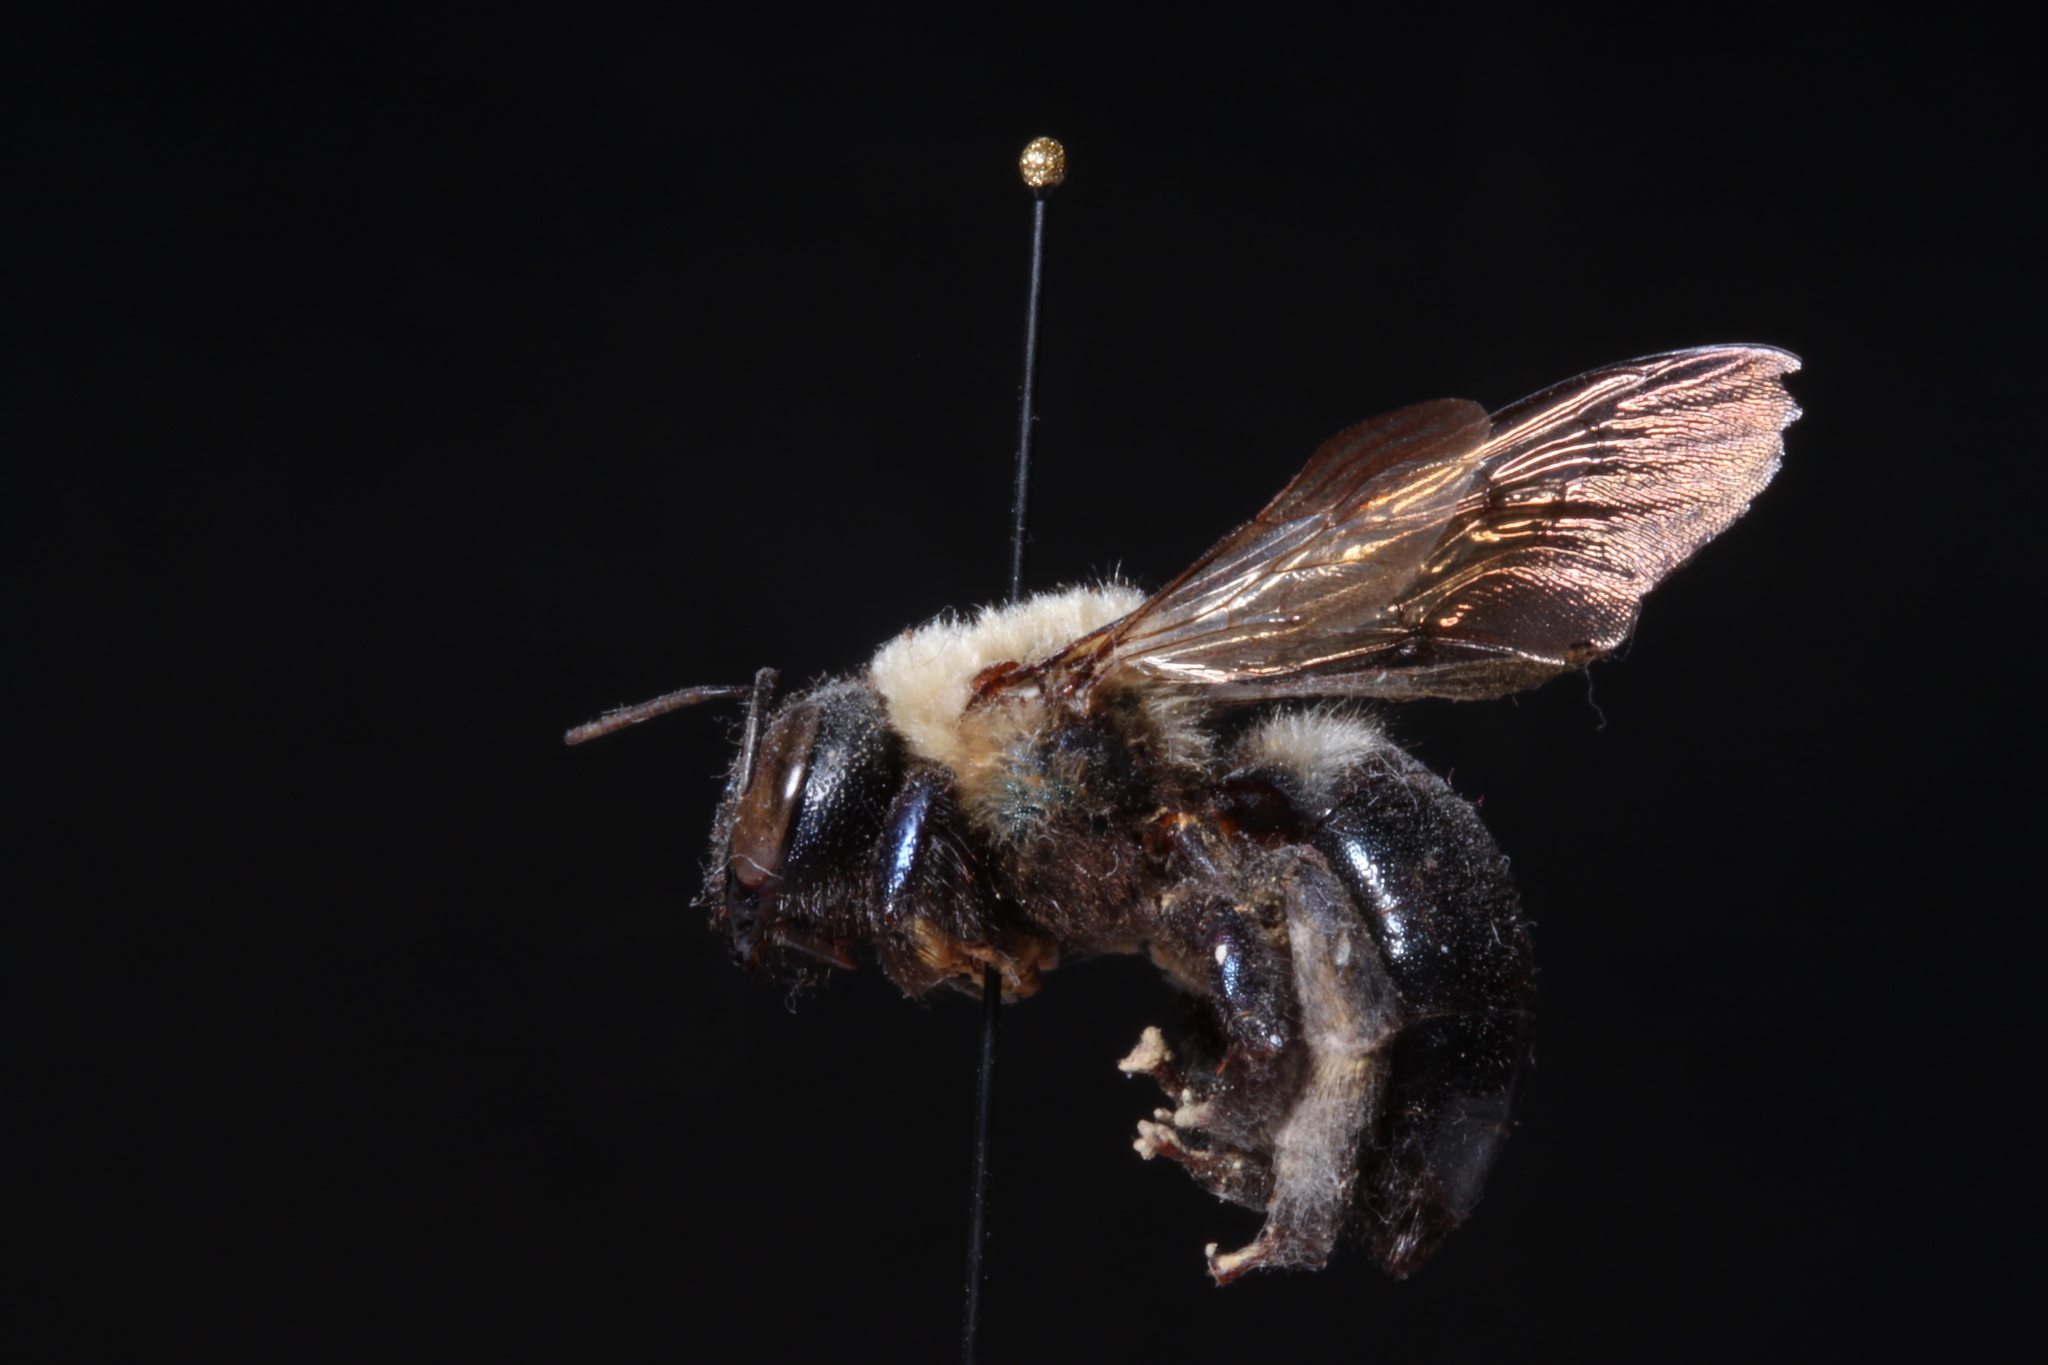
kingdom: Animalia
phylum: Arthropoda
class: Insecta
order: Hymenoptera
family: Apidae
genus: Xylocopa
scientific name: Xylocopa virginica
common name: Carpenter bee
